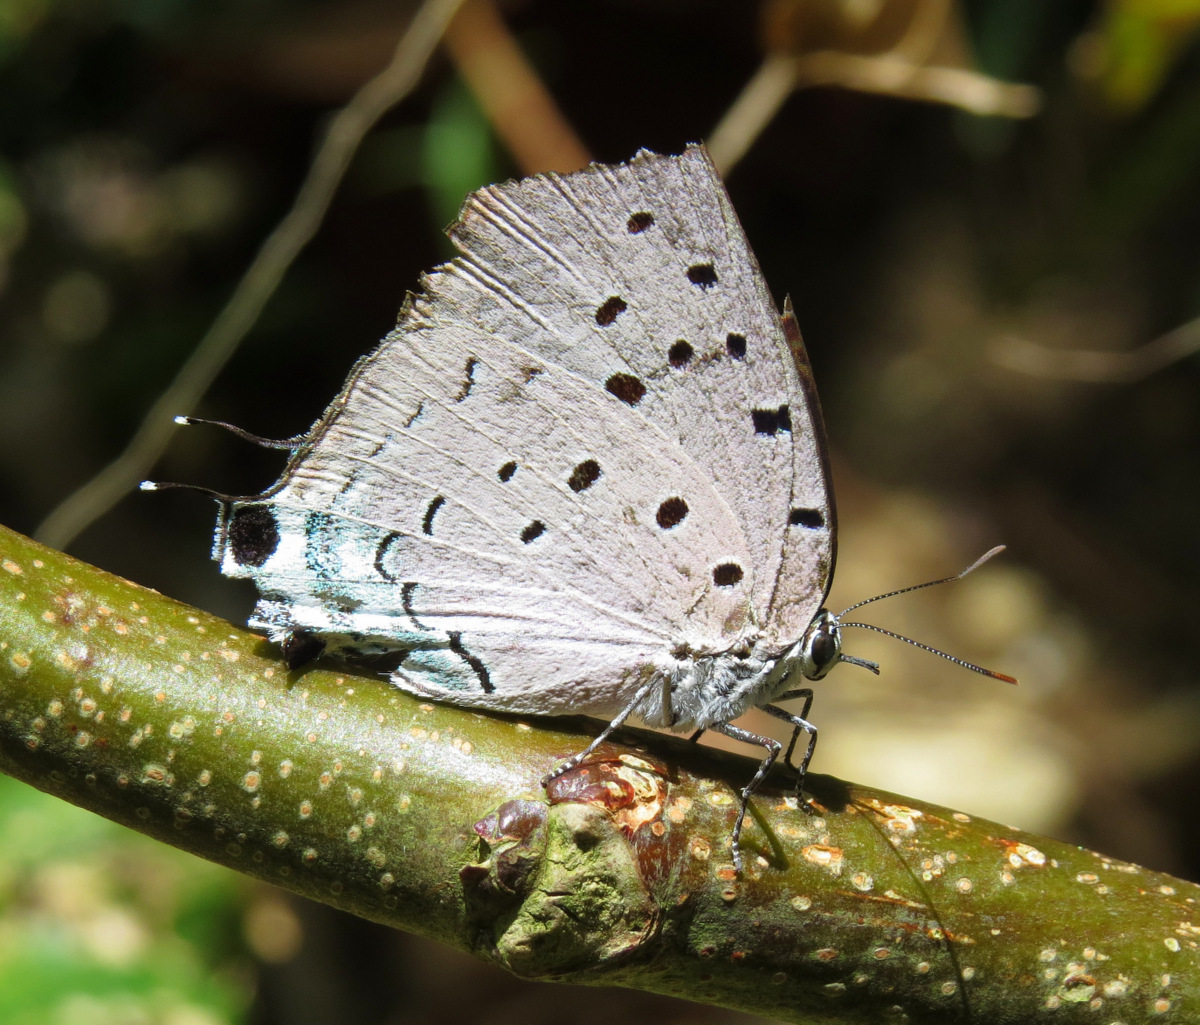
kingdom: Animalia
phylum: Arthropoda
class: Insecta
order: Lepidoptera
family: Lycaenidae
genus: Pseudolycaena
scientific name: Pseudolycaena marsyas
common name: Marsyas hairstreak
